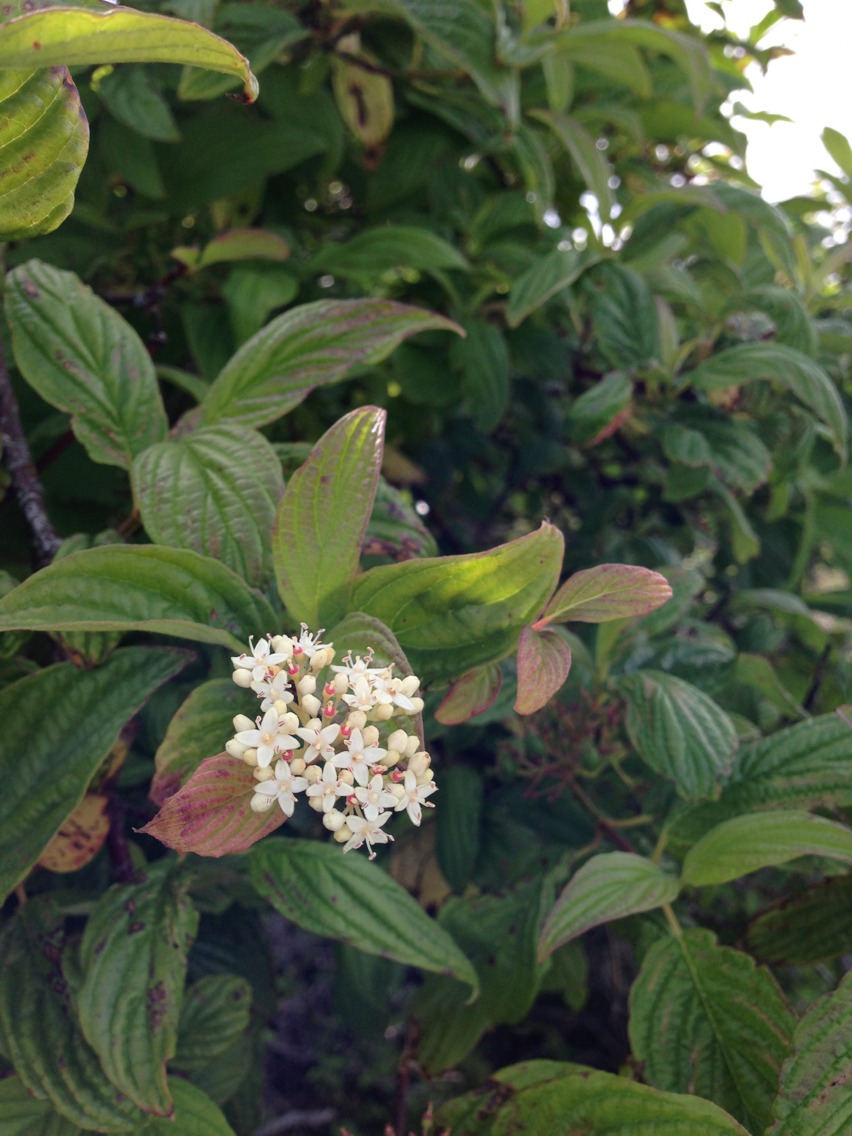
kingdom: Plantae
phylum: Tracheophyta
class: Magnoliopsida
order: Cornales
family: Cornaceae
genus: Cornus
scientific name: Cornus sericea
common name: Red-osier dogwood
